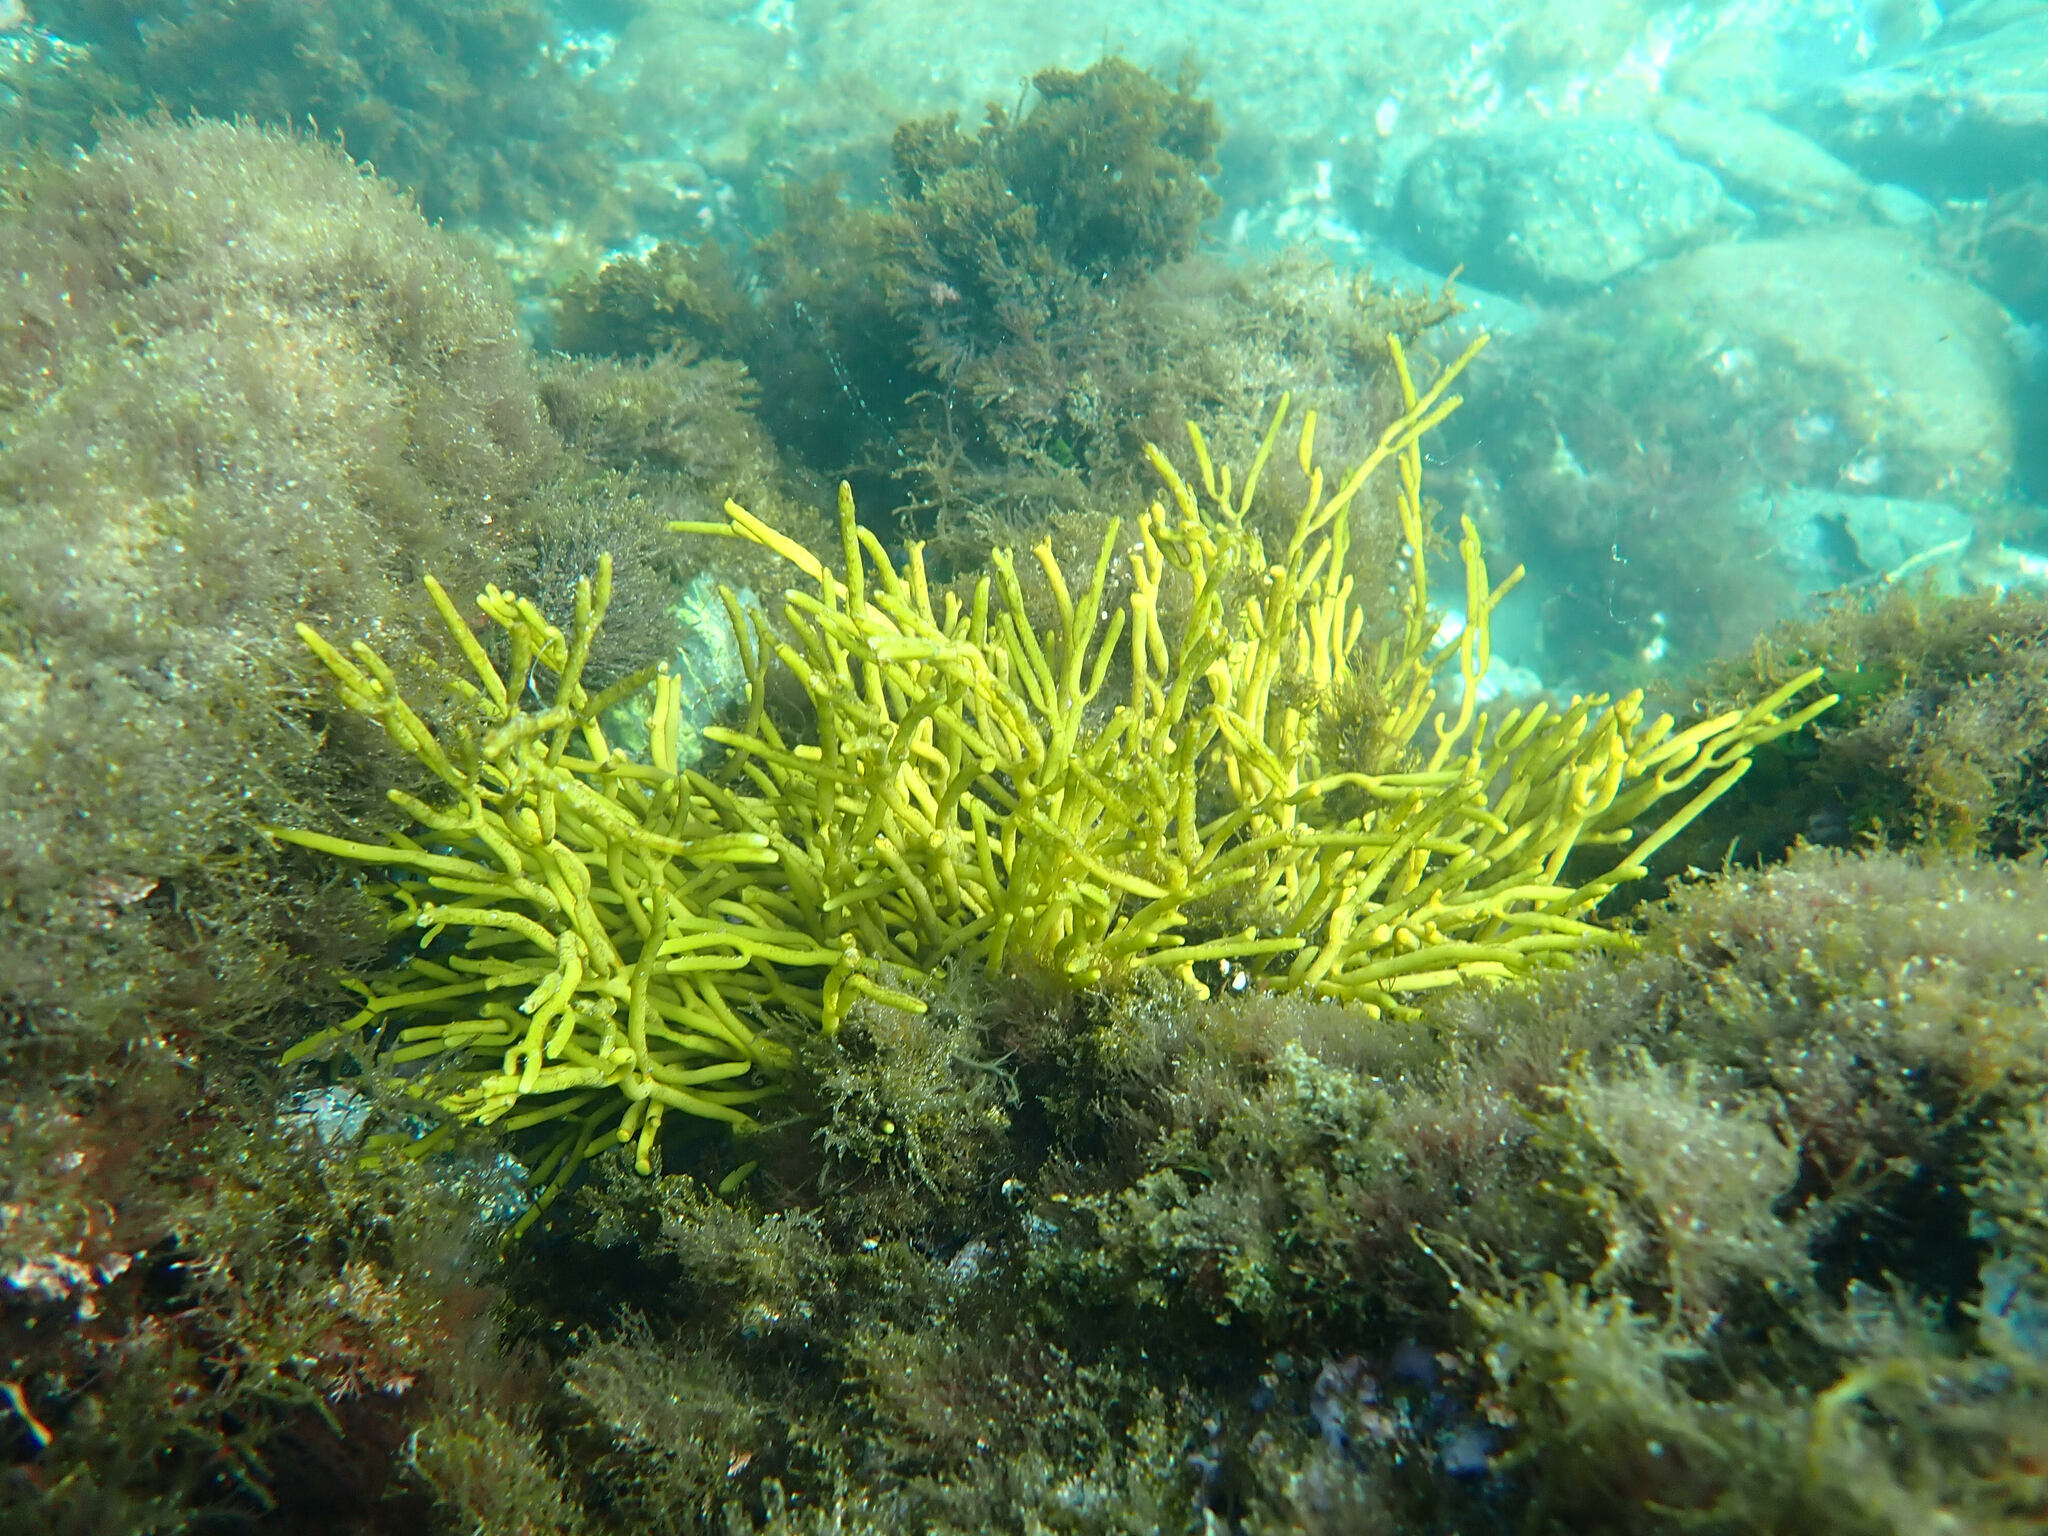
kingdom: Chromista
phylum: Ochrophyta
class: Phaeophyceae
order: Fucales
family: Sargassaceae
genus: Bifurcaria
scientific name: Bifurcaria bifurcata
